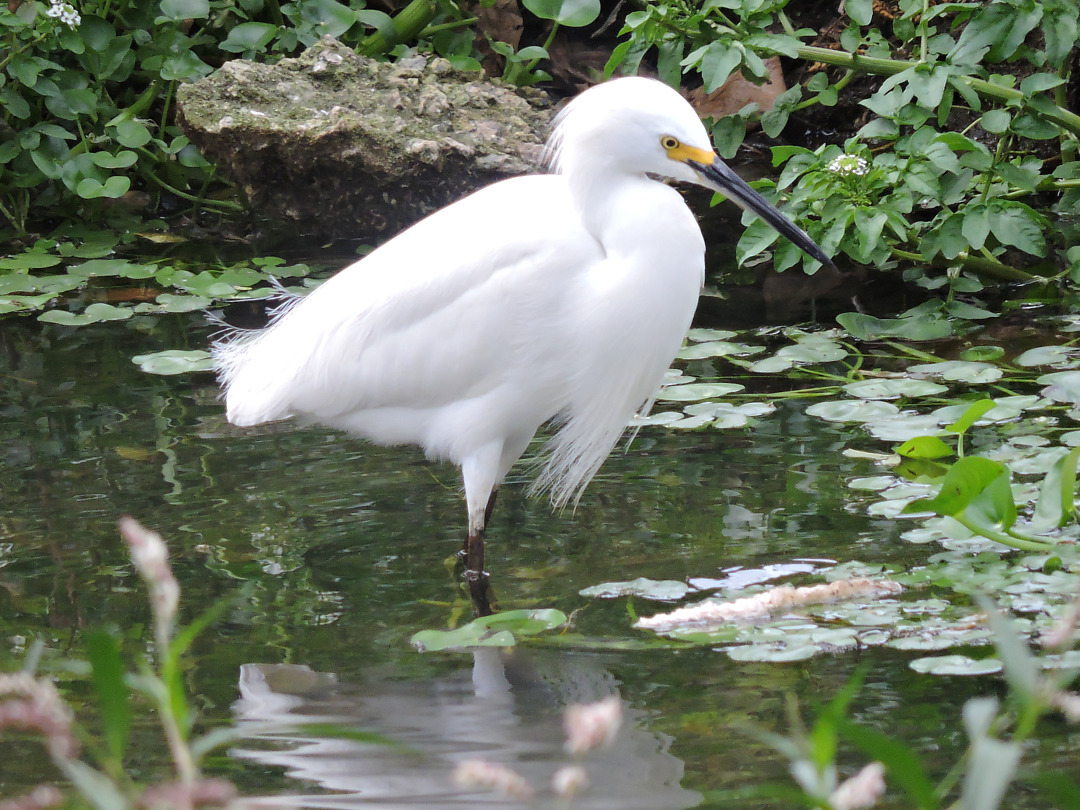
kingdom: Animalia
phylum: Chordata
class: Aves
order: Pelecaniformes
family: Ardeidae
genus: Egretta
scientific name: Egretta thula
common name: Snowy egret
